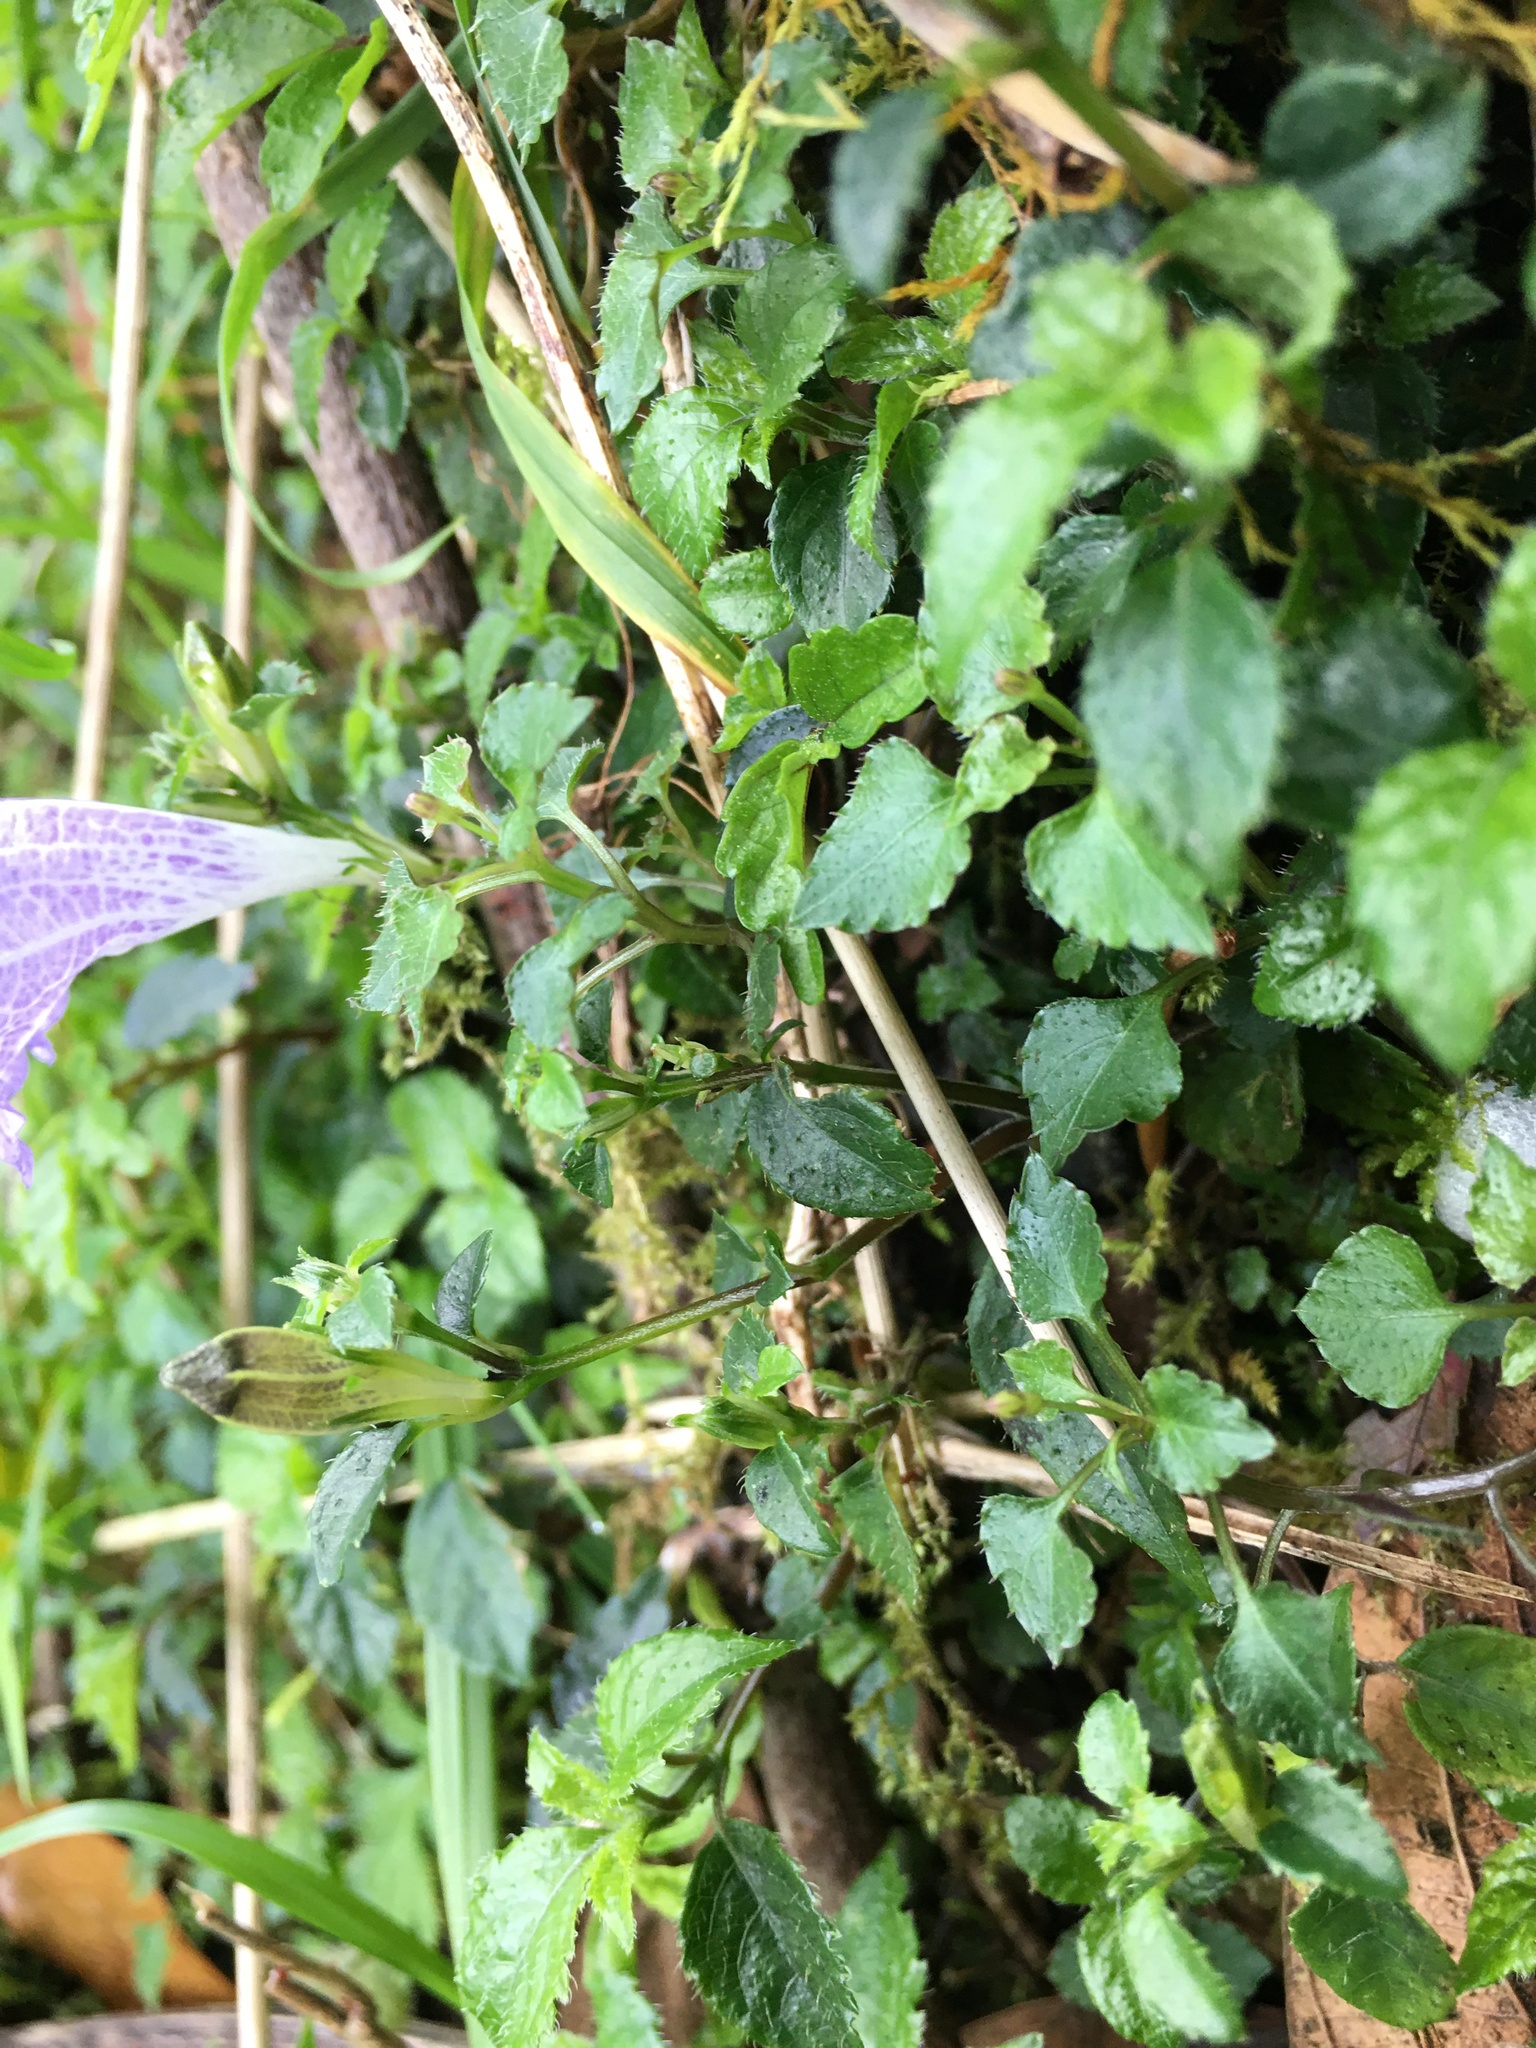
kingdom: Plantae
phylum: Tracheophyta
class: Magnoliopsida
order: Lamiales
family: Acanthaceae
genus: Strobilanthes
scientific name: Strobilanthes rankanensis
